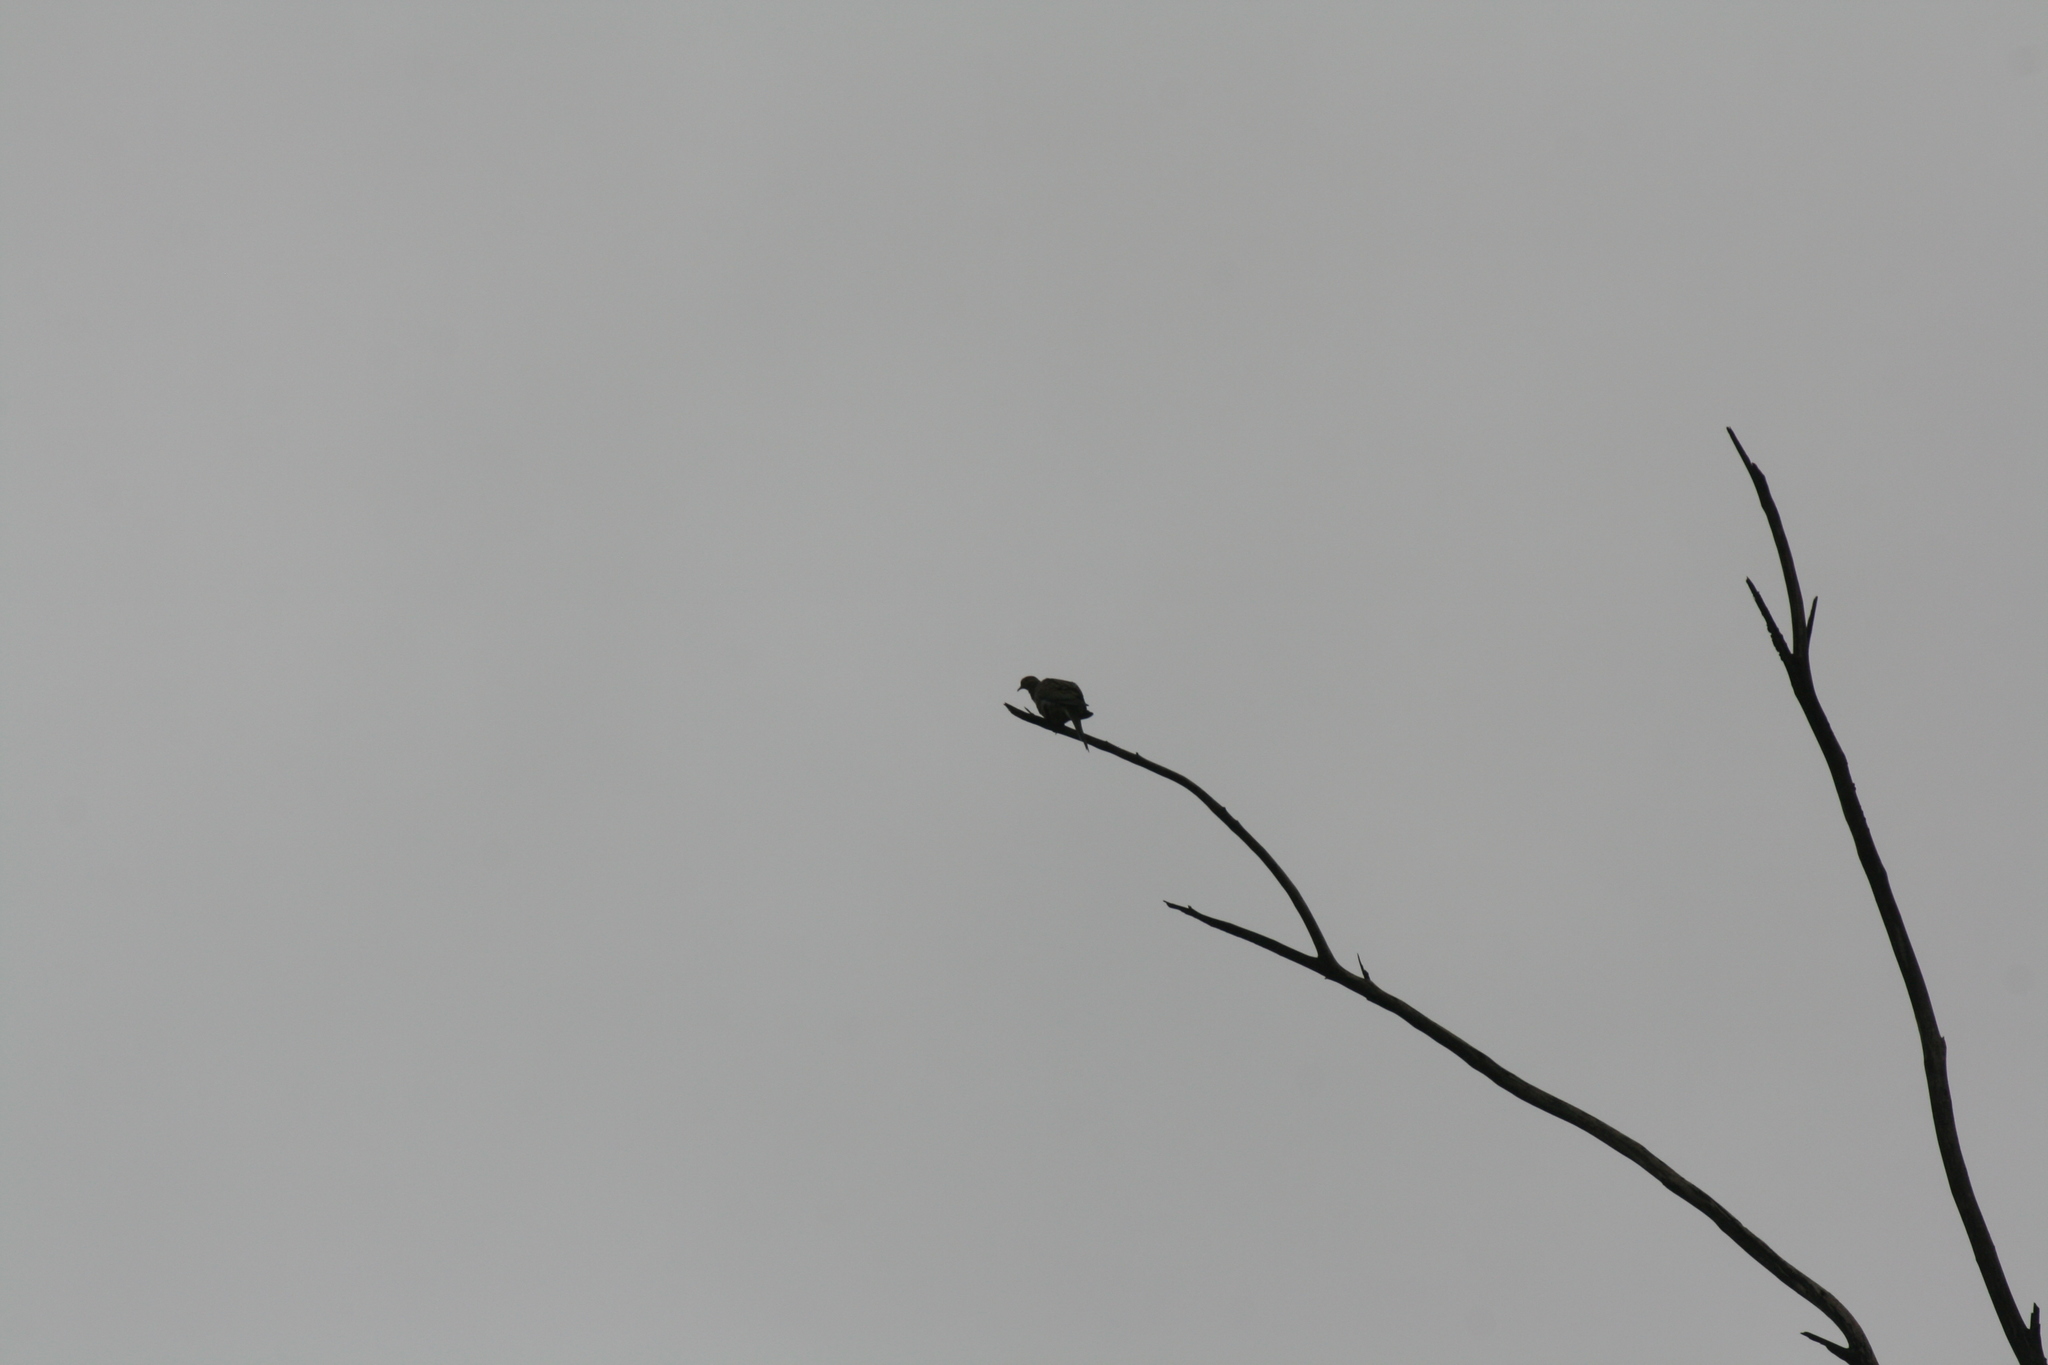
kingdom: Animalia
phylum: Chordata
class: Aves
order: Columbiformes
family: Columbidae
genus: Zenaida
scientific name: Zenaida macroura
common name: Mourning dove
